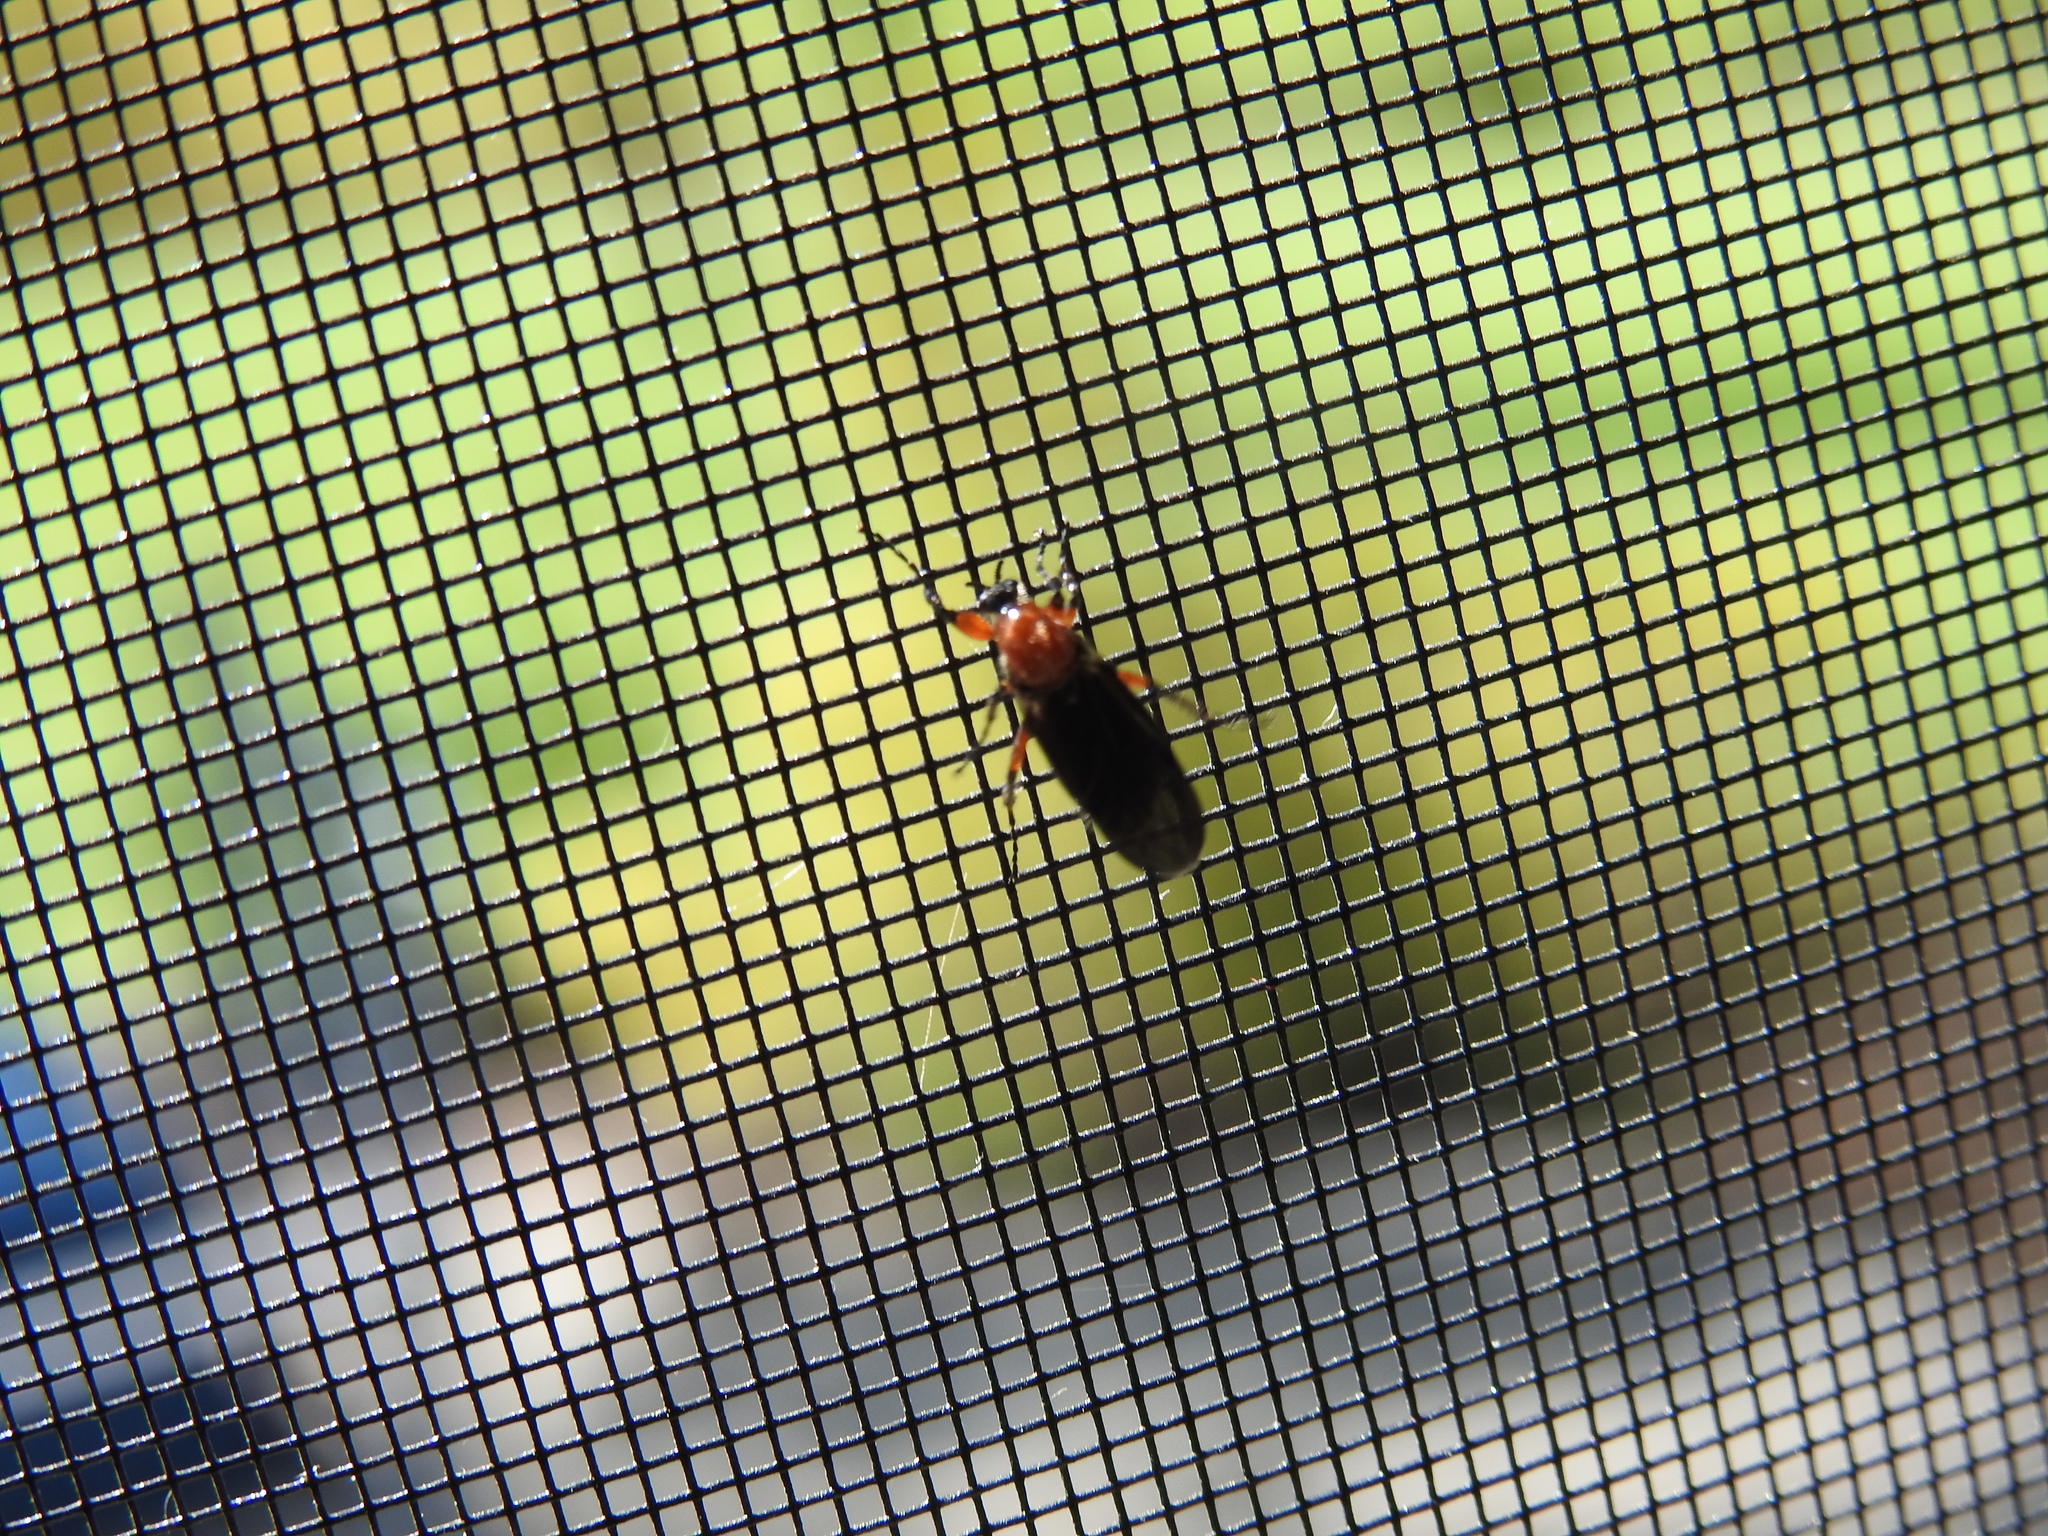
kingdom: Animalia
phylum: Arthropoda
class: Insecta
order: Diptera
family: Bibionidae
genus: Bibio
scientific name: Bibio alienus
